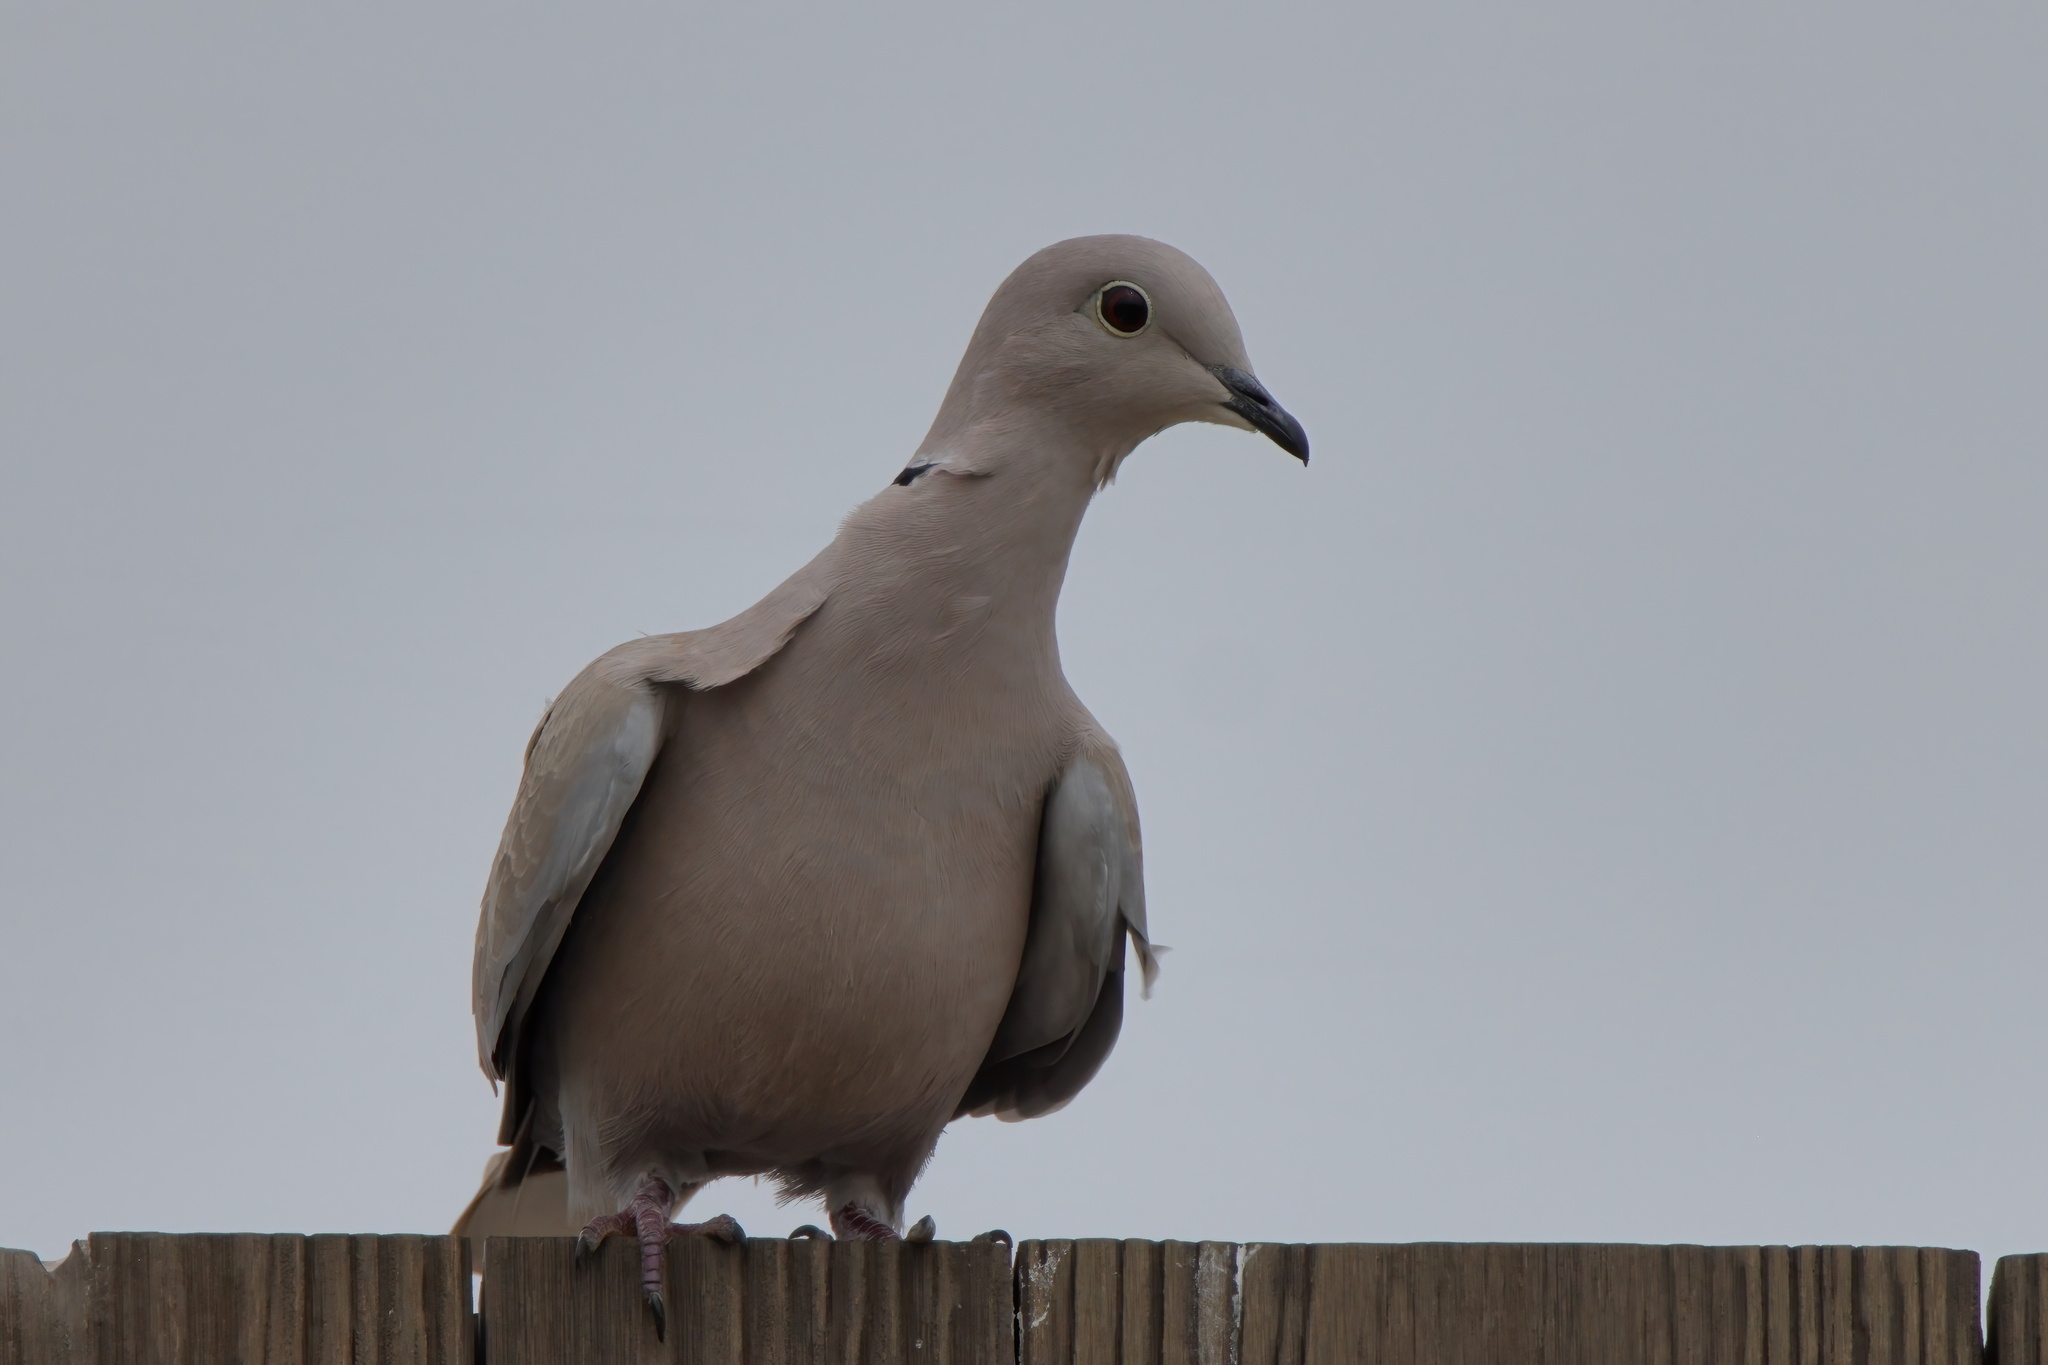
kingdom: Animalia
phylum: Chordata
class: Aves
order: Columbiformes
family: Columbidae
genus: Streptopelia
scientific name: Streptopelia decaocto
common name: Eurasian collared dove
